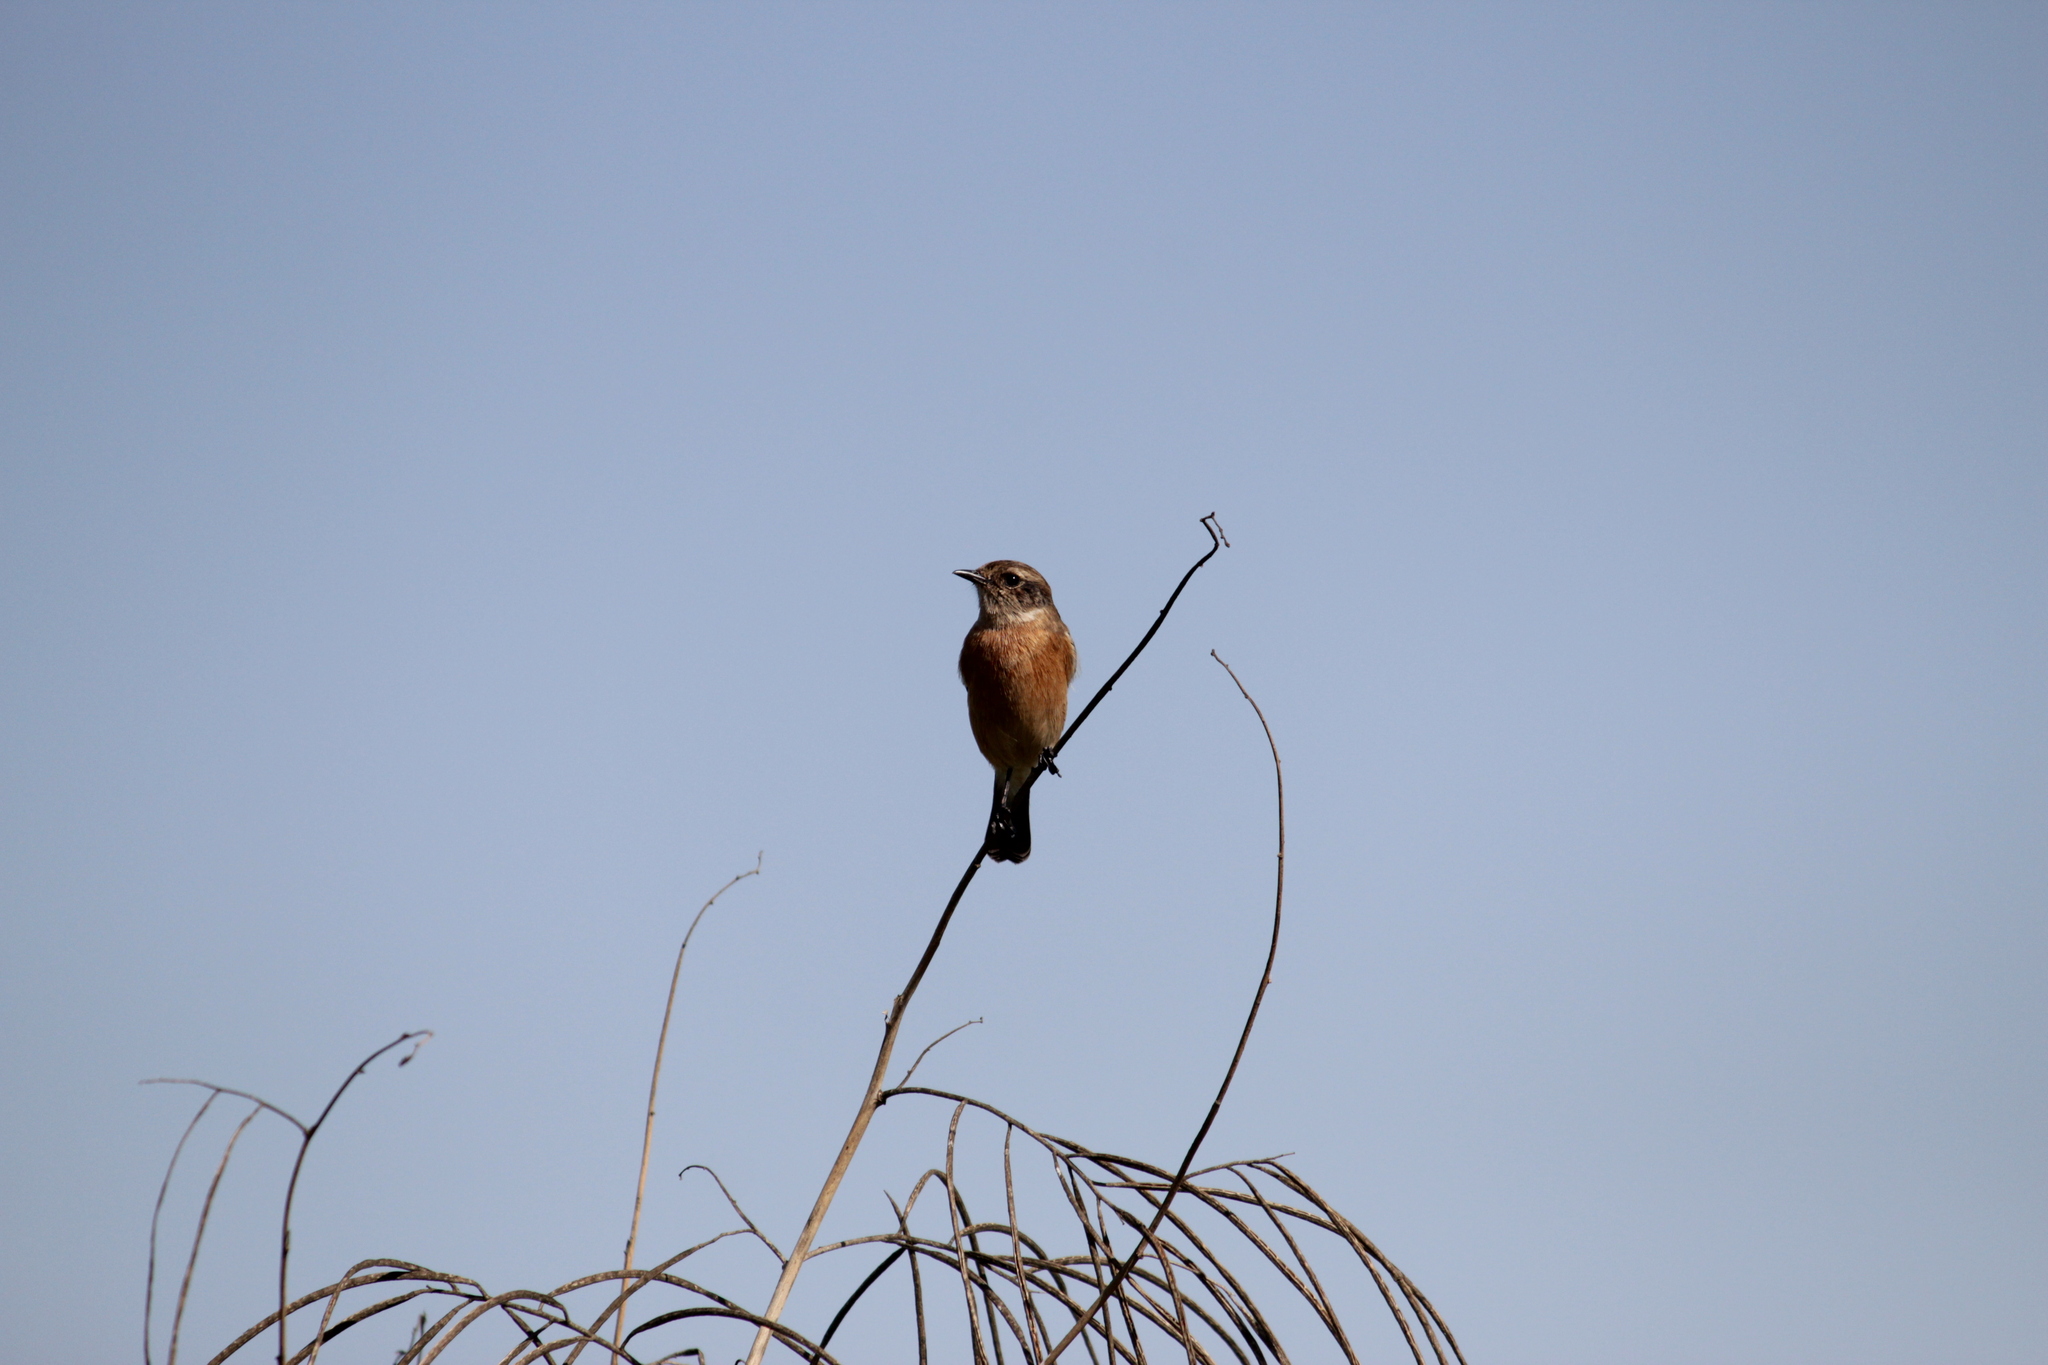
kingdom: Animalia
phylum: Chordata
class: Aves
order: Passeriformes
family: Muscicapidae
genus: Saxicola
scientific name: Saxicola torquatus
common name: African stonechat
